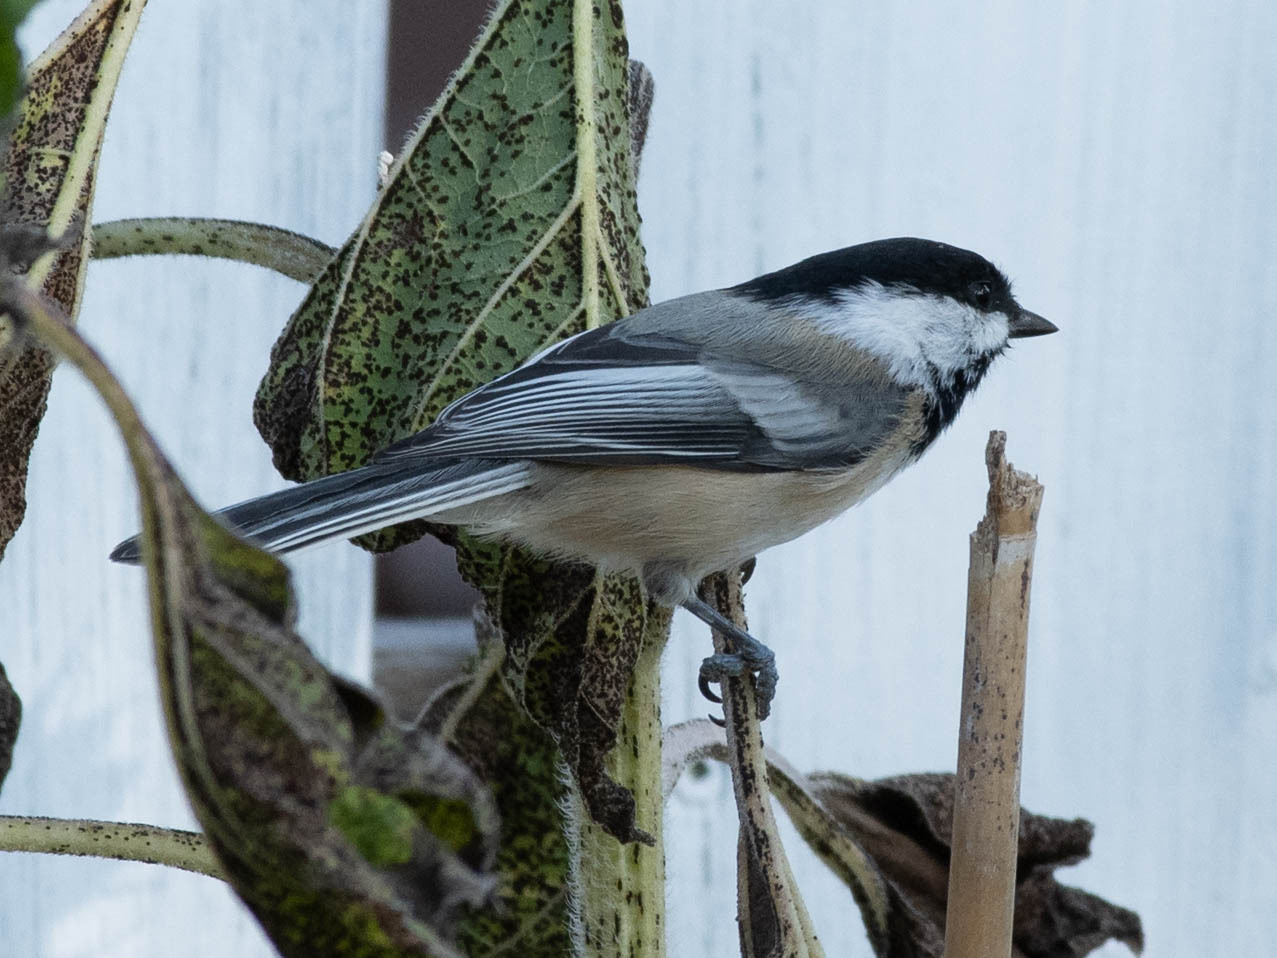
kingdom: Animalia
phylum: Chordata
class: Aves
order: Passeriformes
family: Paridae
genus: Poecile
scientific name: Poecile atricapillus
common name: Black-capped chickadee
